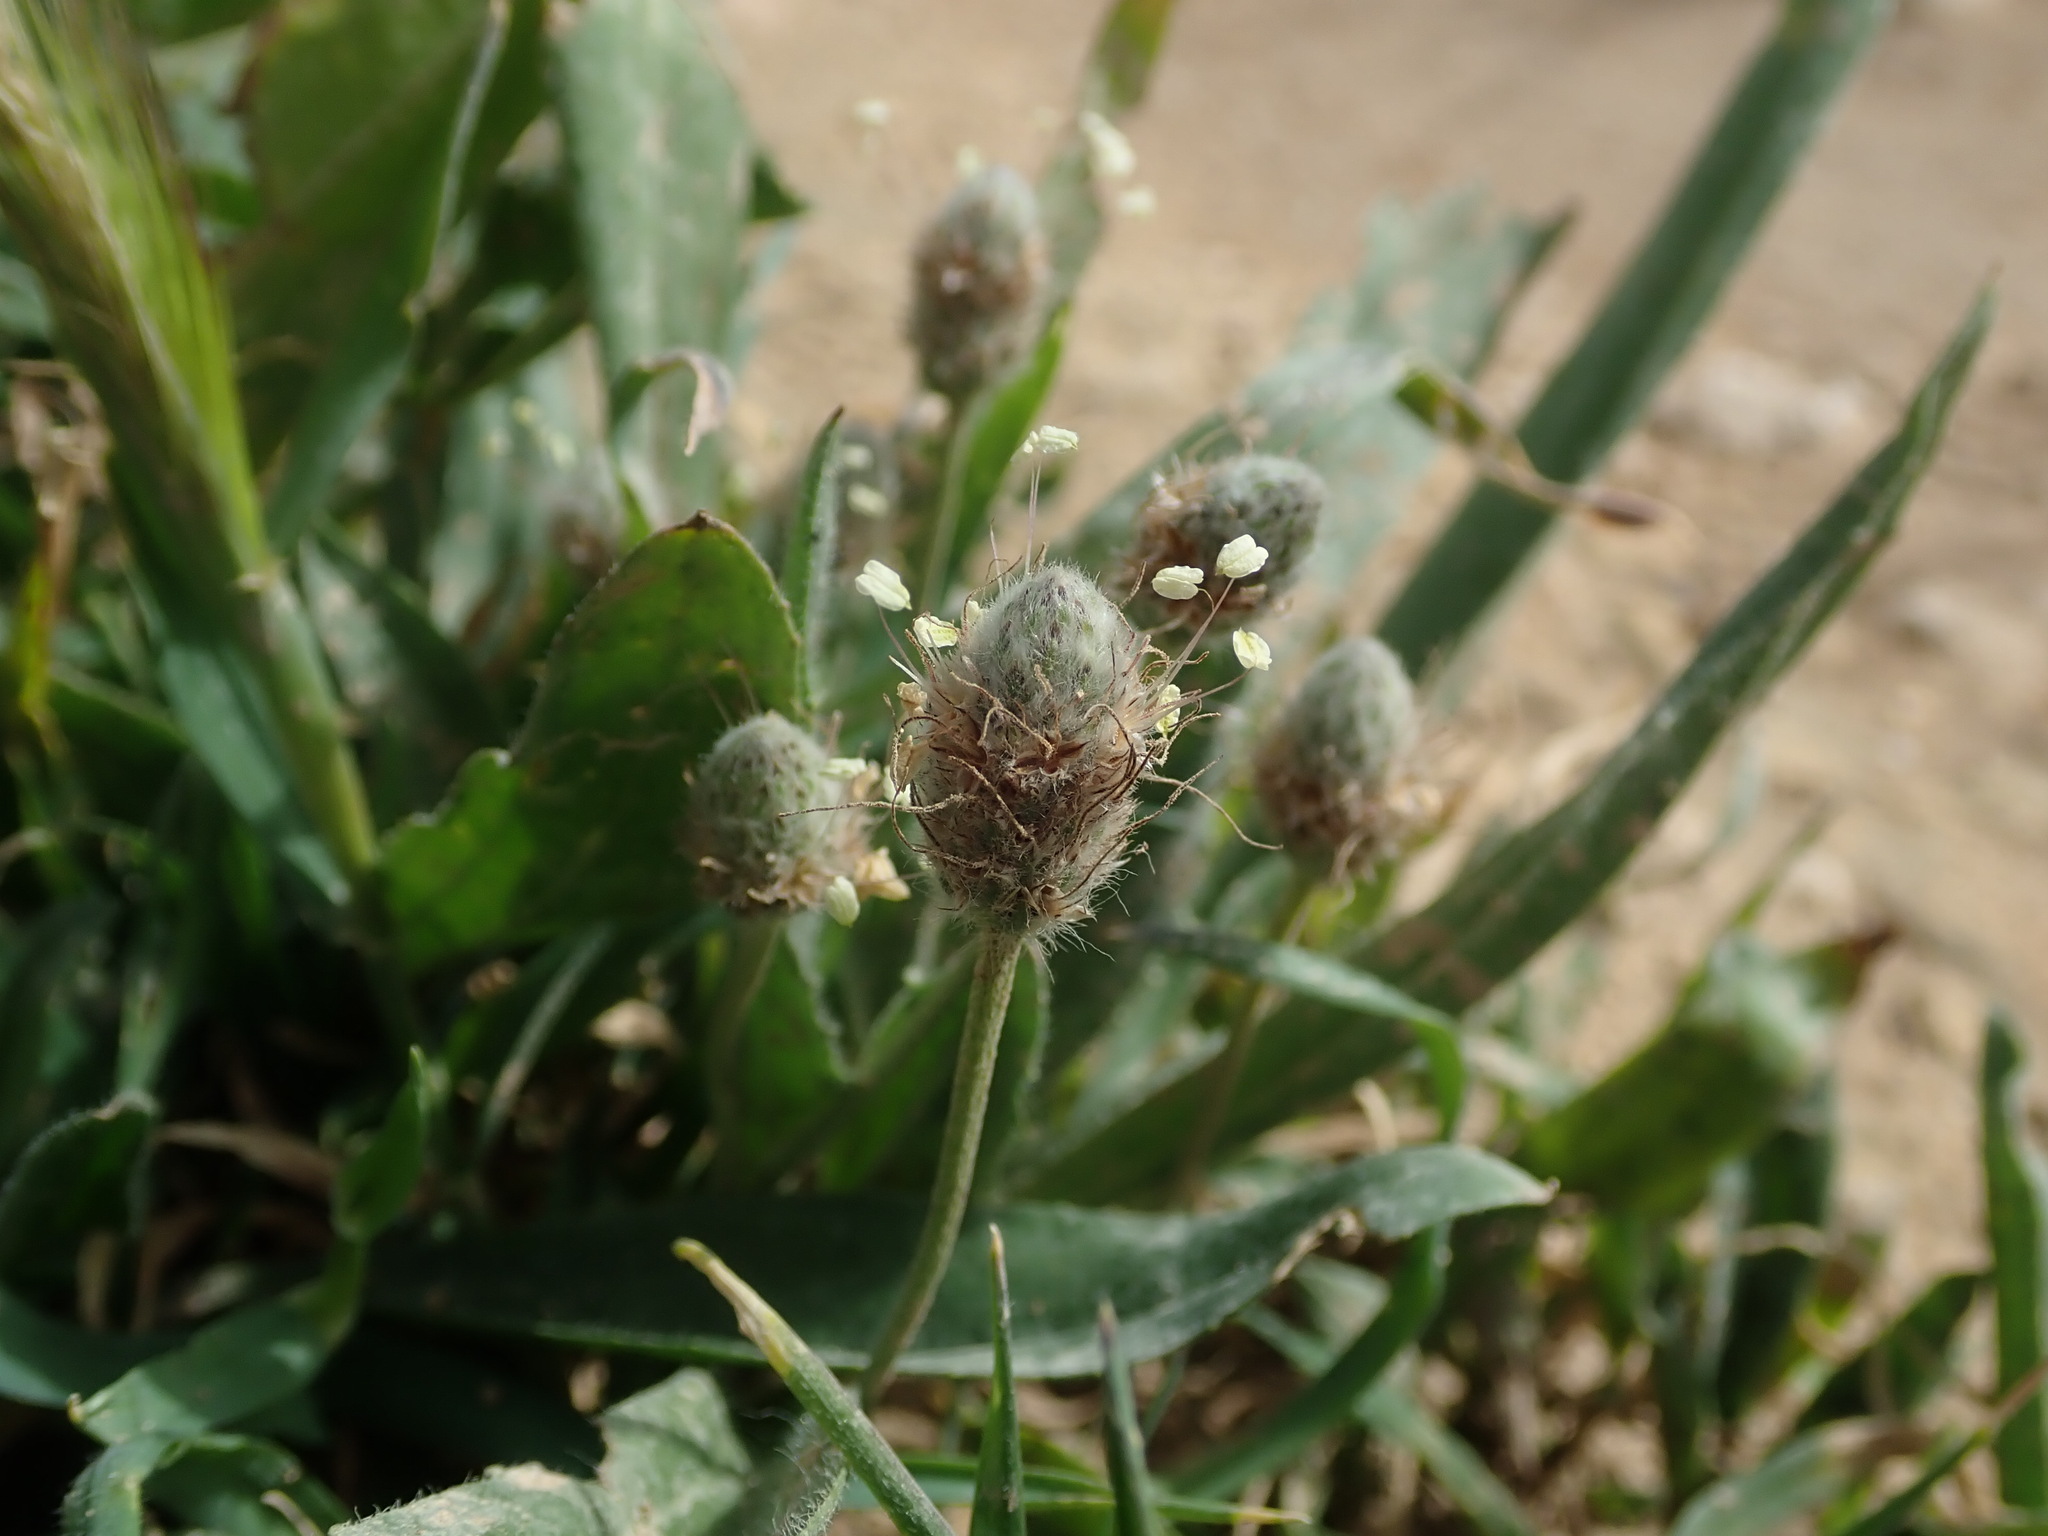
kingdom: Plantae
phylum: Tracheophyta
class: Magnoliopsida
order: Lamiales
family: Plantaginaceae
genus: Plantago
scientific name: Plantago lagopus
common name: Hare-foot plantain
